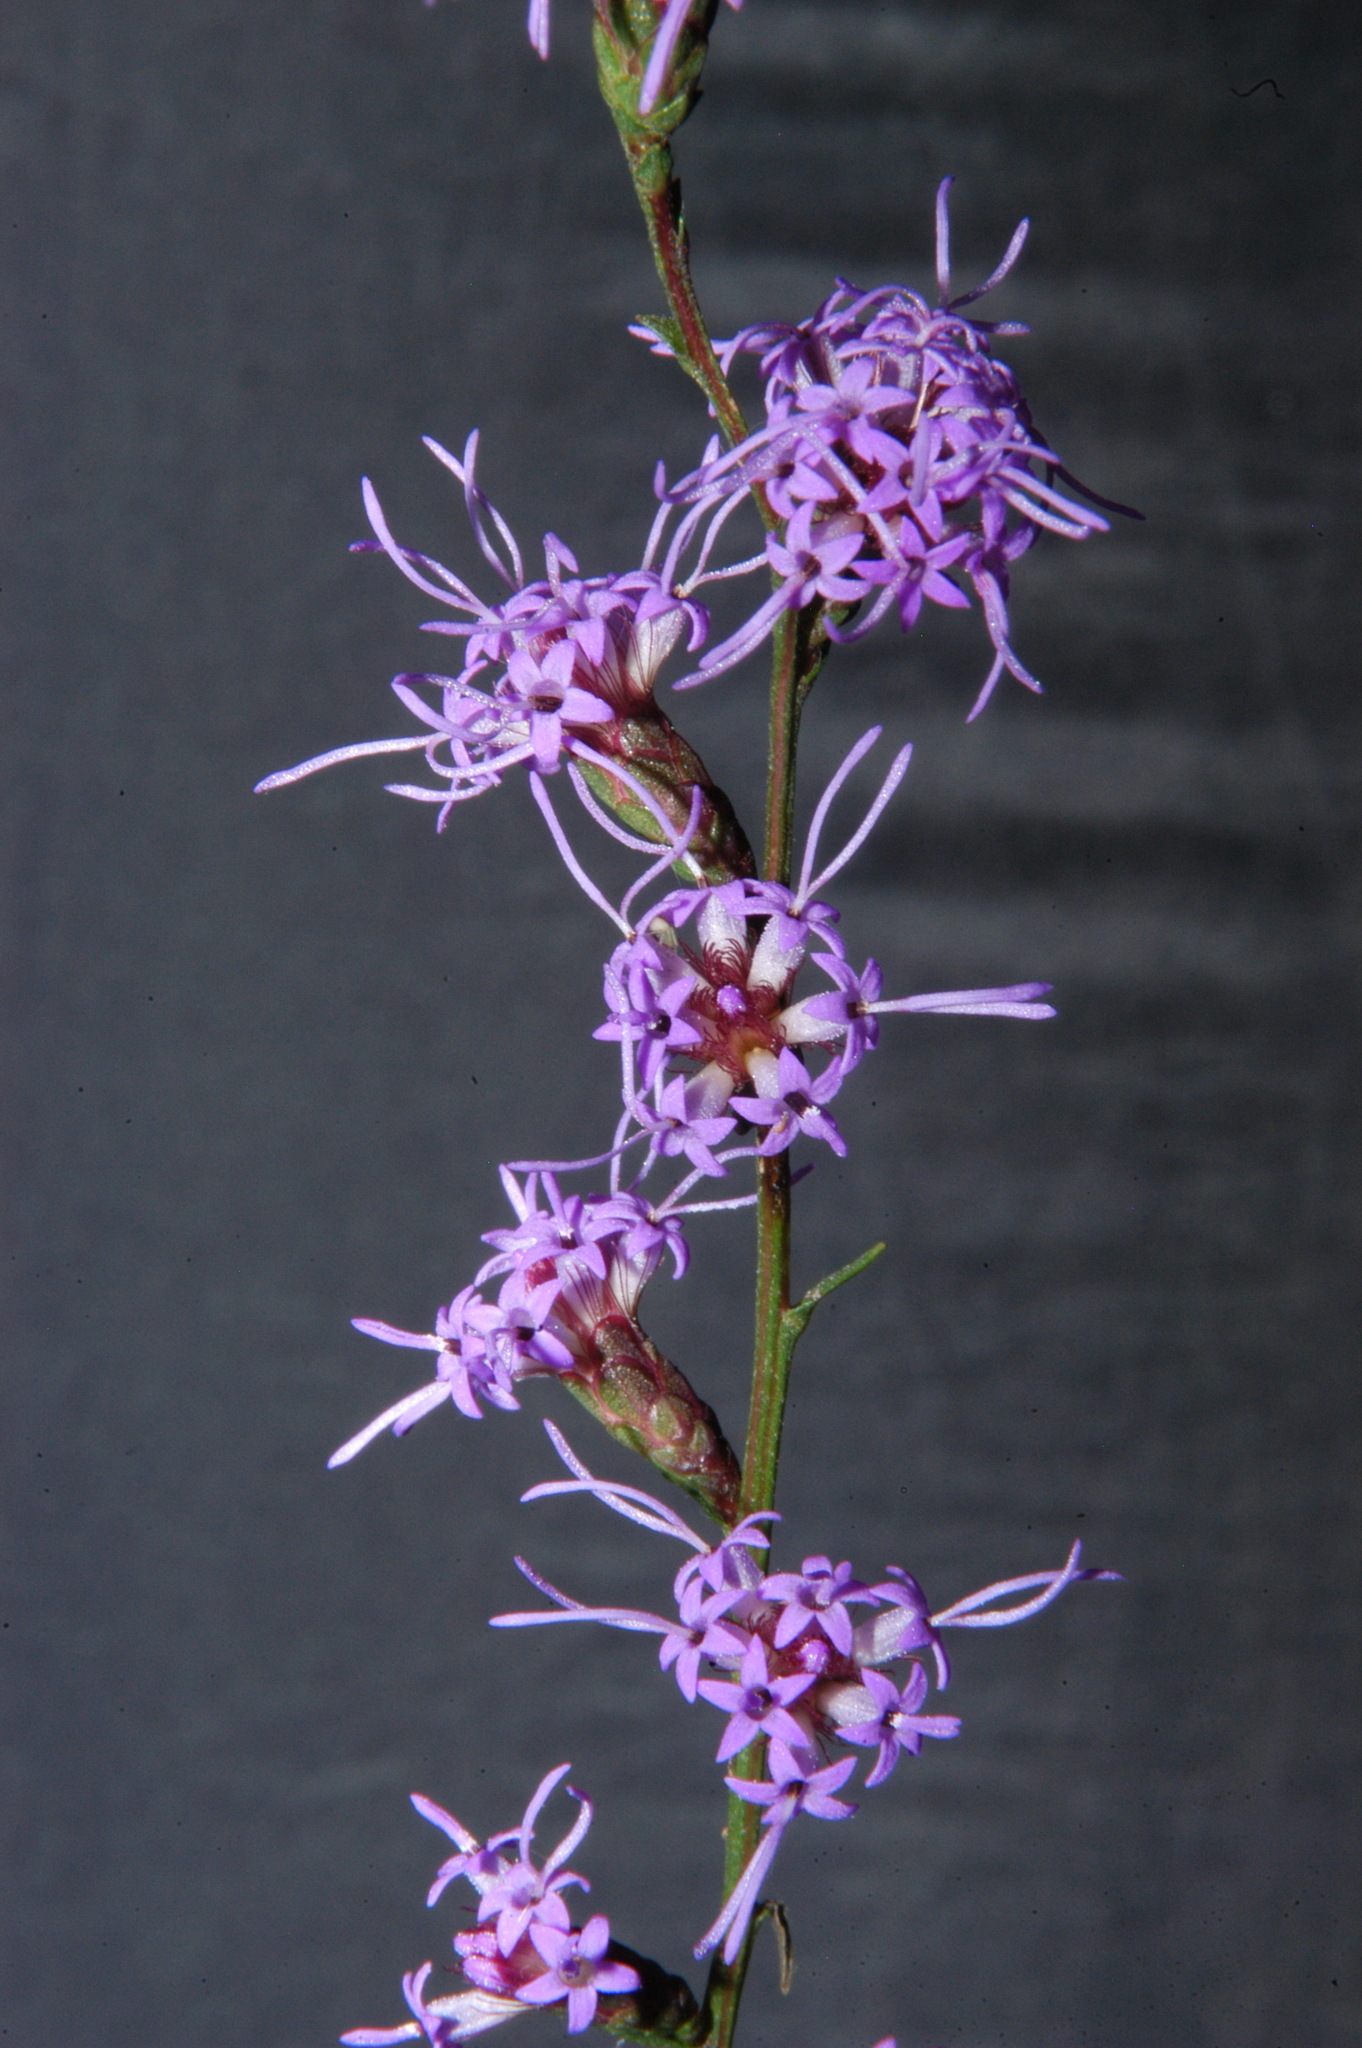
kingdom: Plantae
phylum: Tracheophyta
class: Magnoliopsida
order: Asterales
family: Asteraceae
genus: Liatris
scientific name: Liatris elegantula
